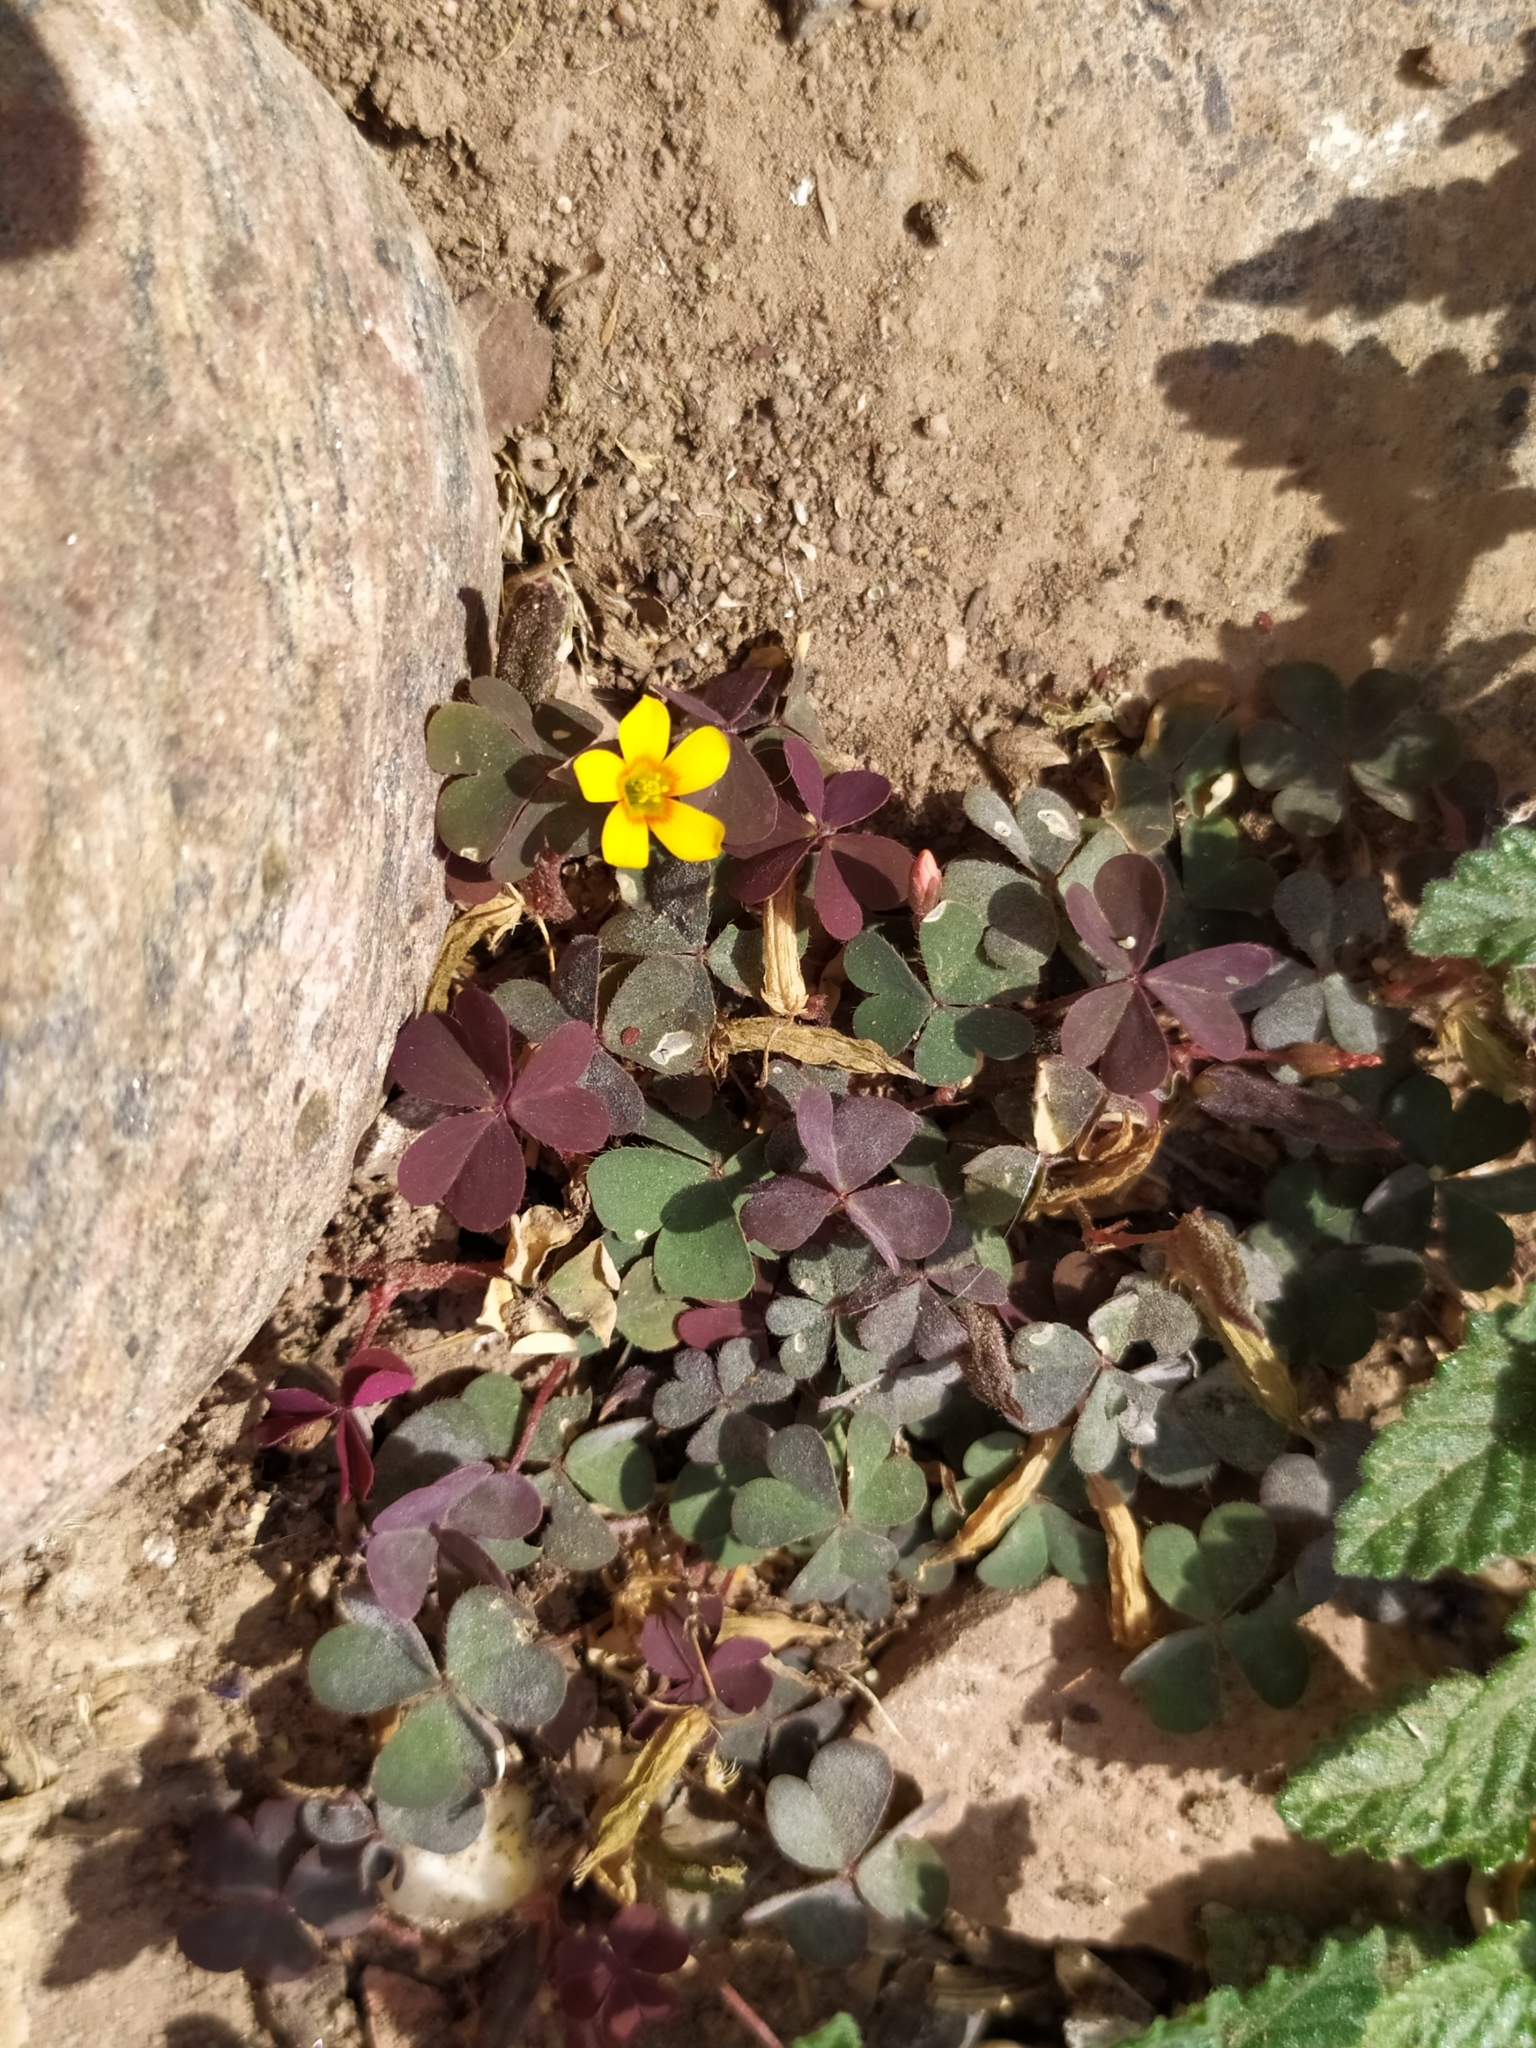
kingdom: Plantae
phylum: Tracheophyta
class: Magnoliopsida
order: Oxalidales
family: Oxalidaceae
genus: Oxalis
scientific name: Oxalis corniculata
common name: Procumbent yellow-sorrel
